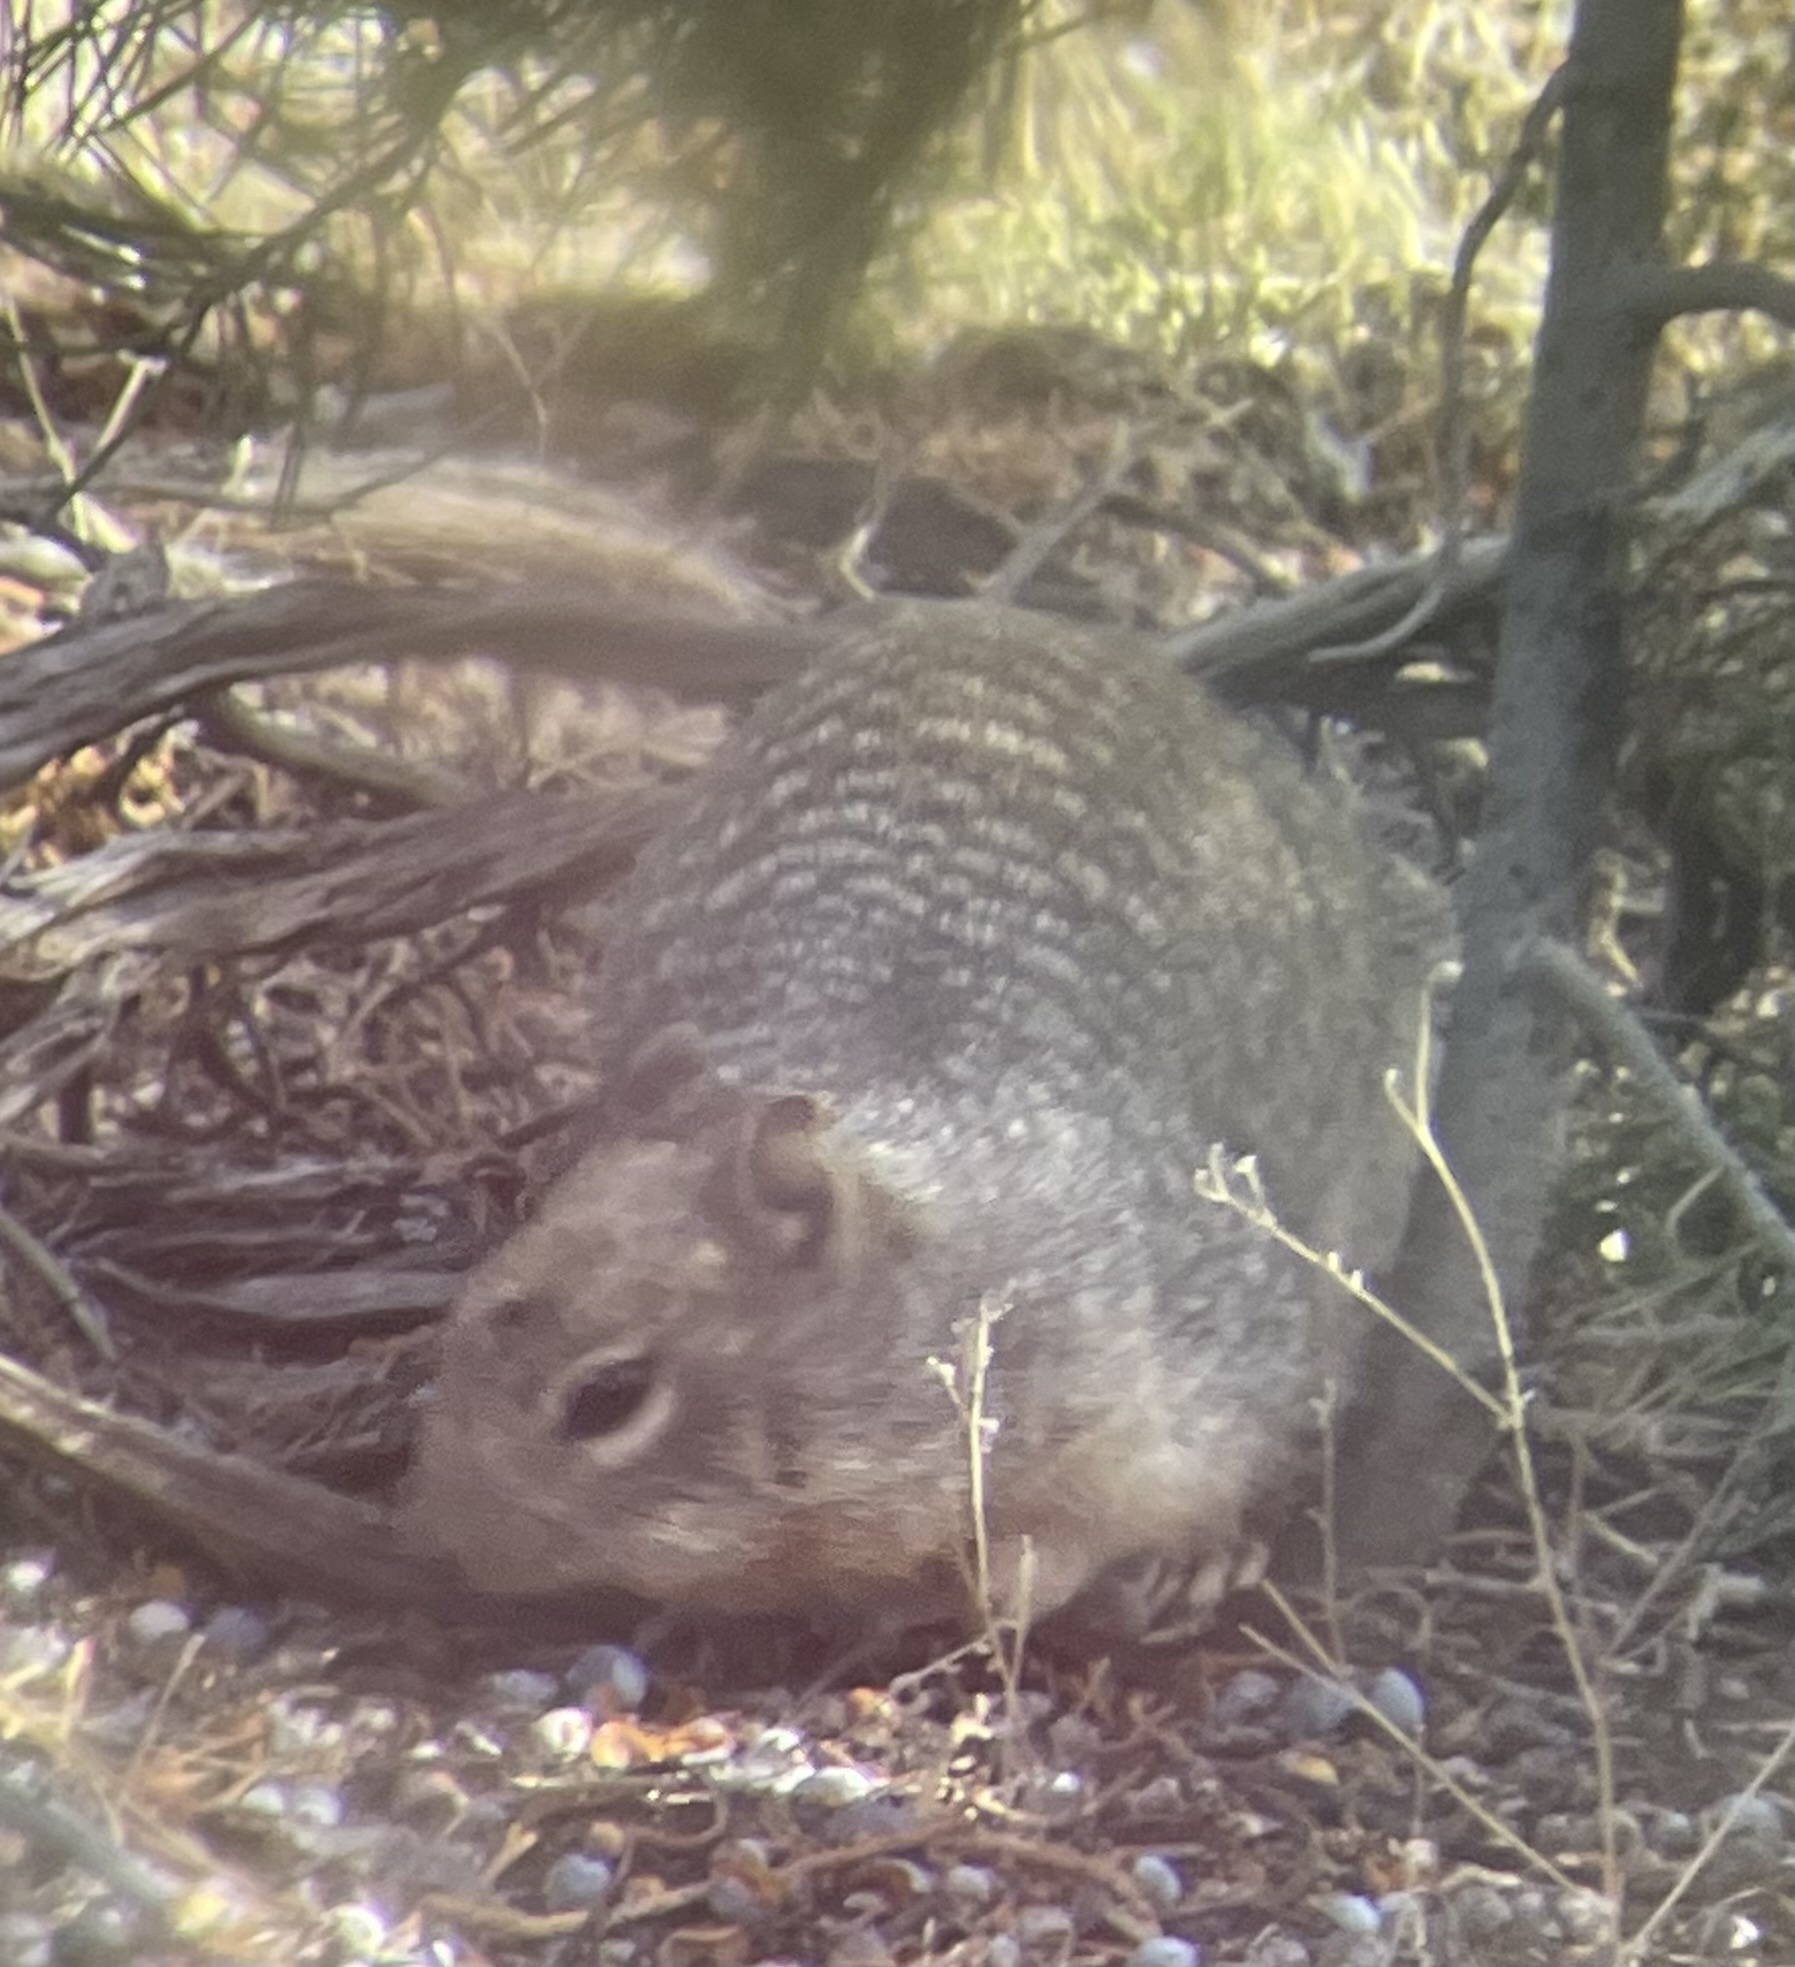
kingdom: Animalia
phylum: Chordata
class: Mammalia
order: Rodentia
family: Sciuridae
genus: Otospermophilus
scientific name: Otospermophilus variegatus
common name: Rock squirrel
